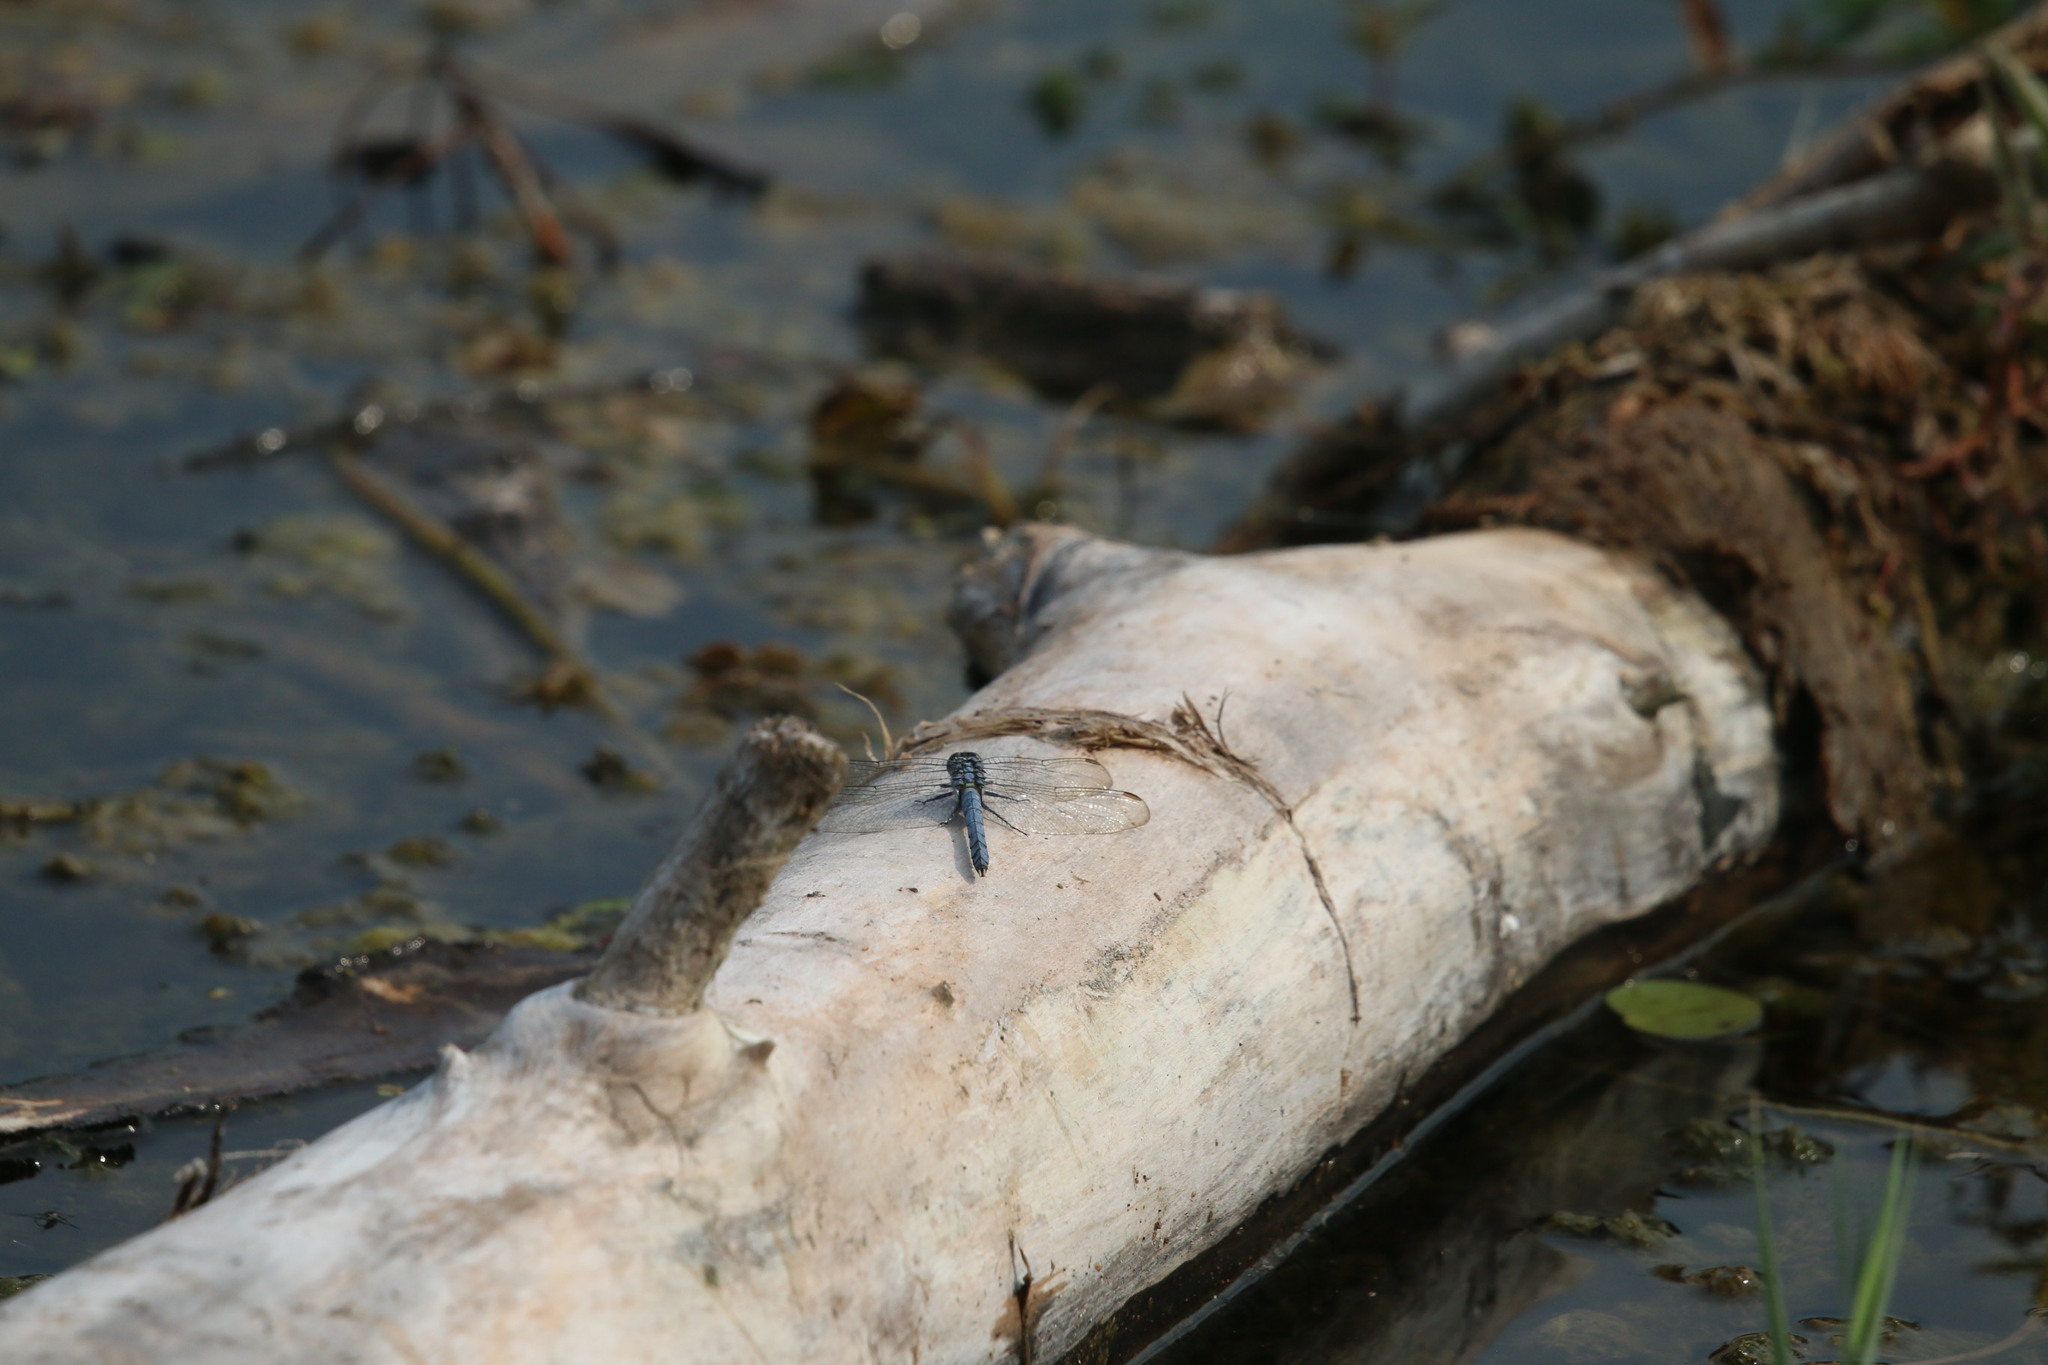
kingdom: Animalia
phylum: Arthropoda
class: Insecta
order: Odonata
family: Libellulidae
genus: Erythemis
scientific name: Erythemis simplicicollis
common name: Eastern pondhawk
